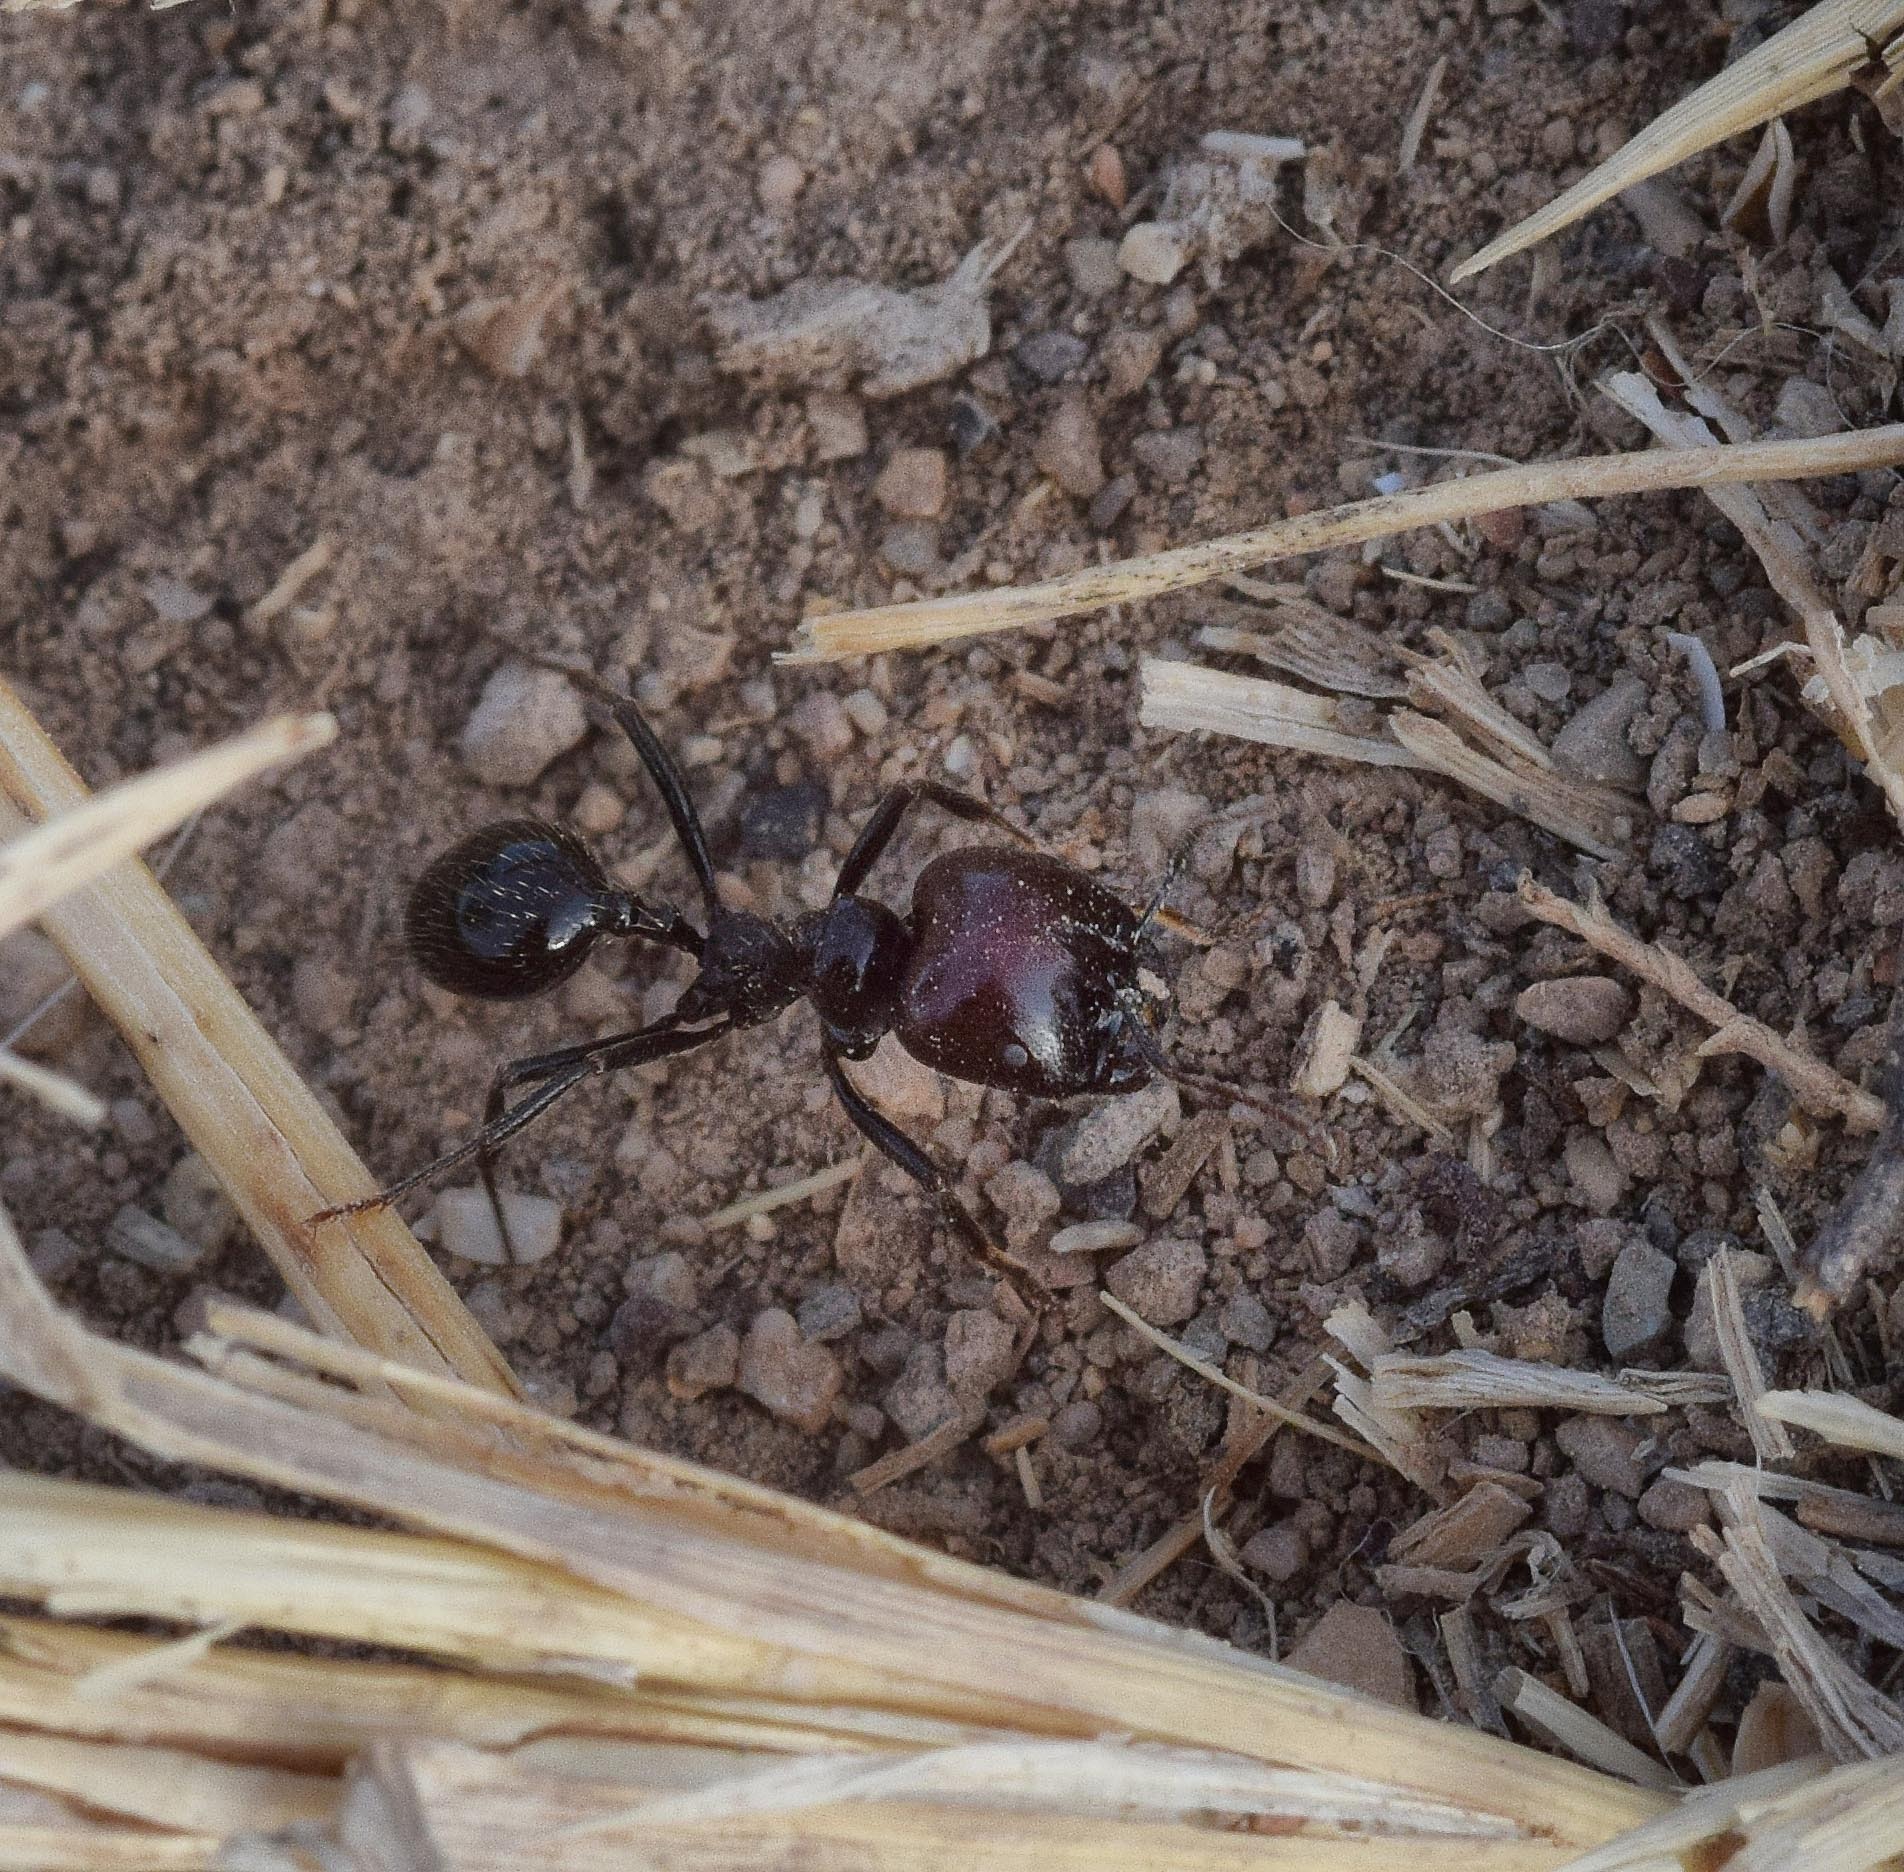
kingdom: Animalia
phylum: Arthropoda
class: Insecta
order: Hymenoptera
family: Formicidae
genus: Messor
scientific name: Messor barbarus
